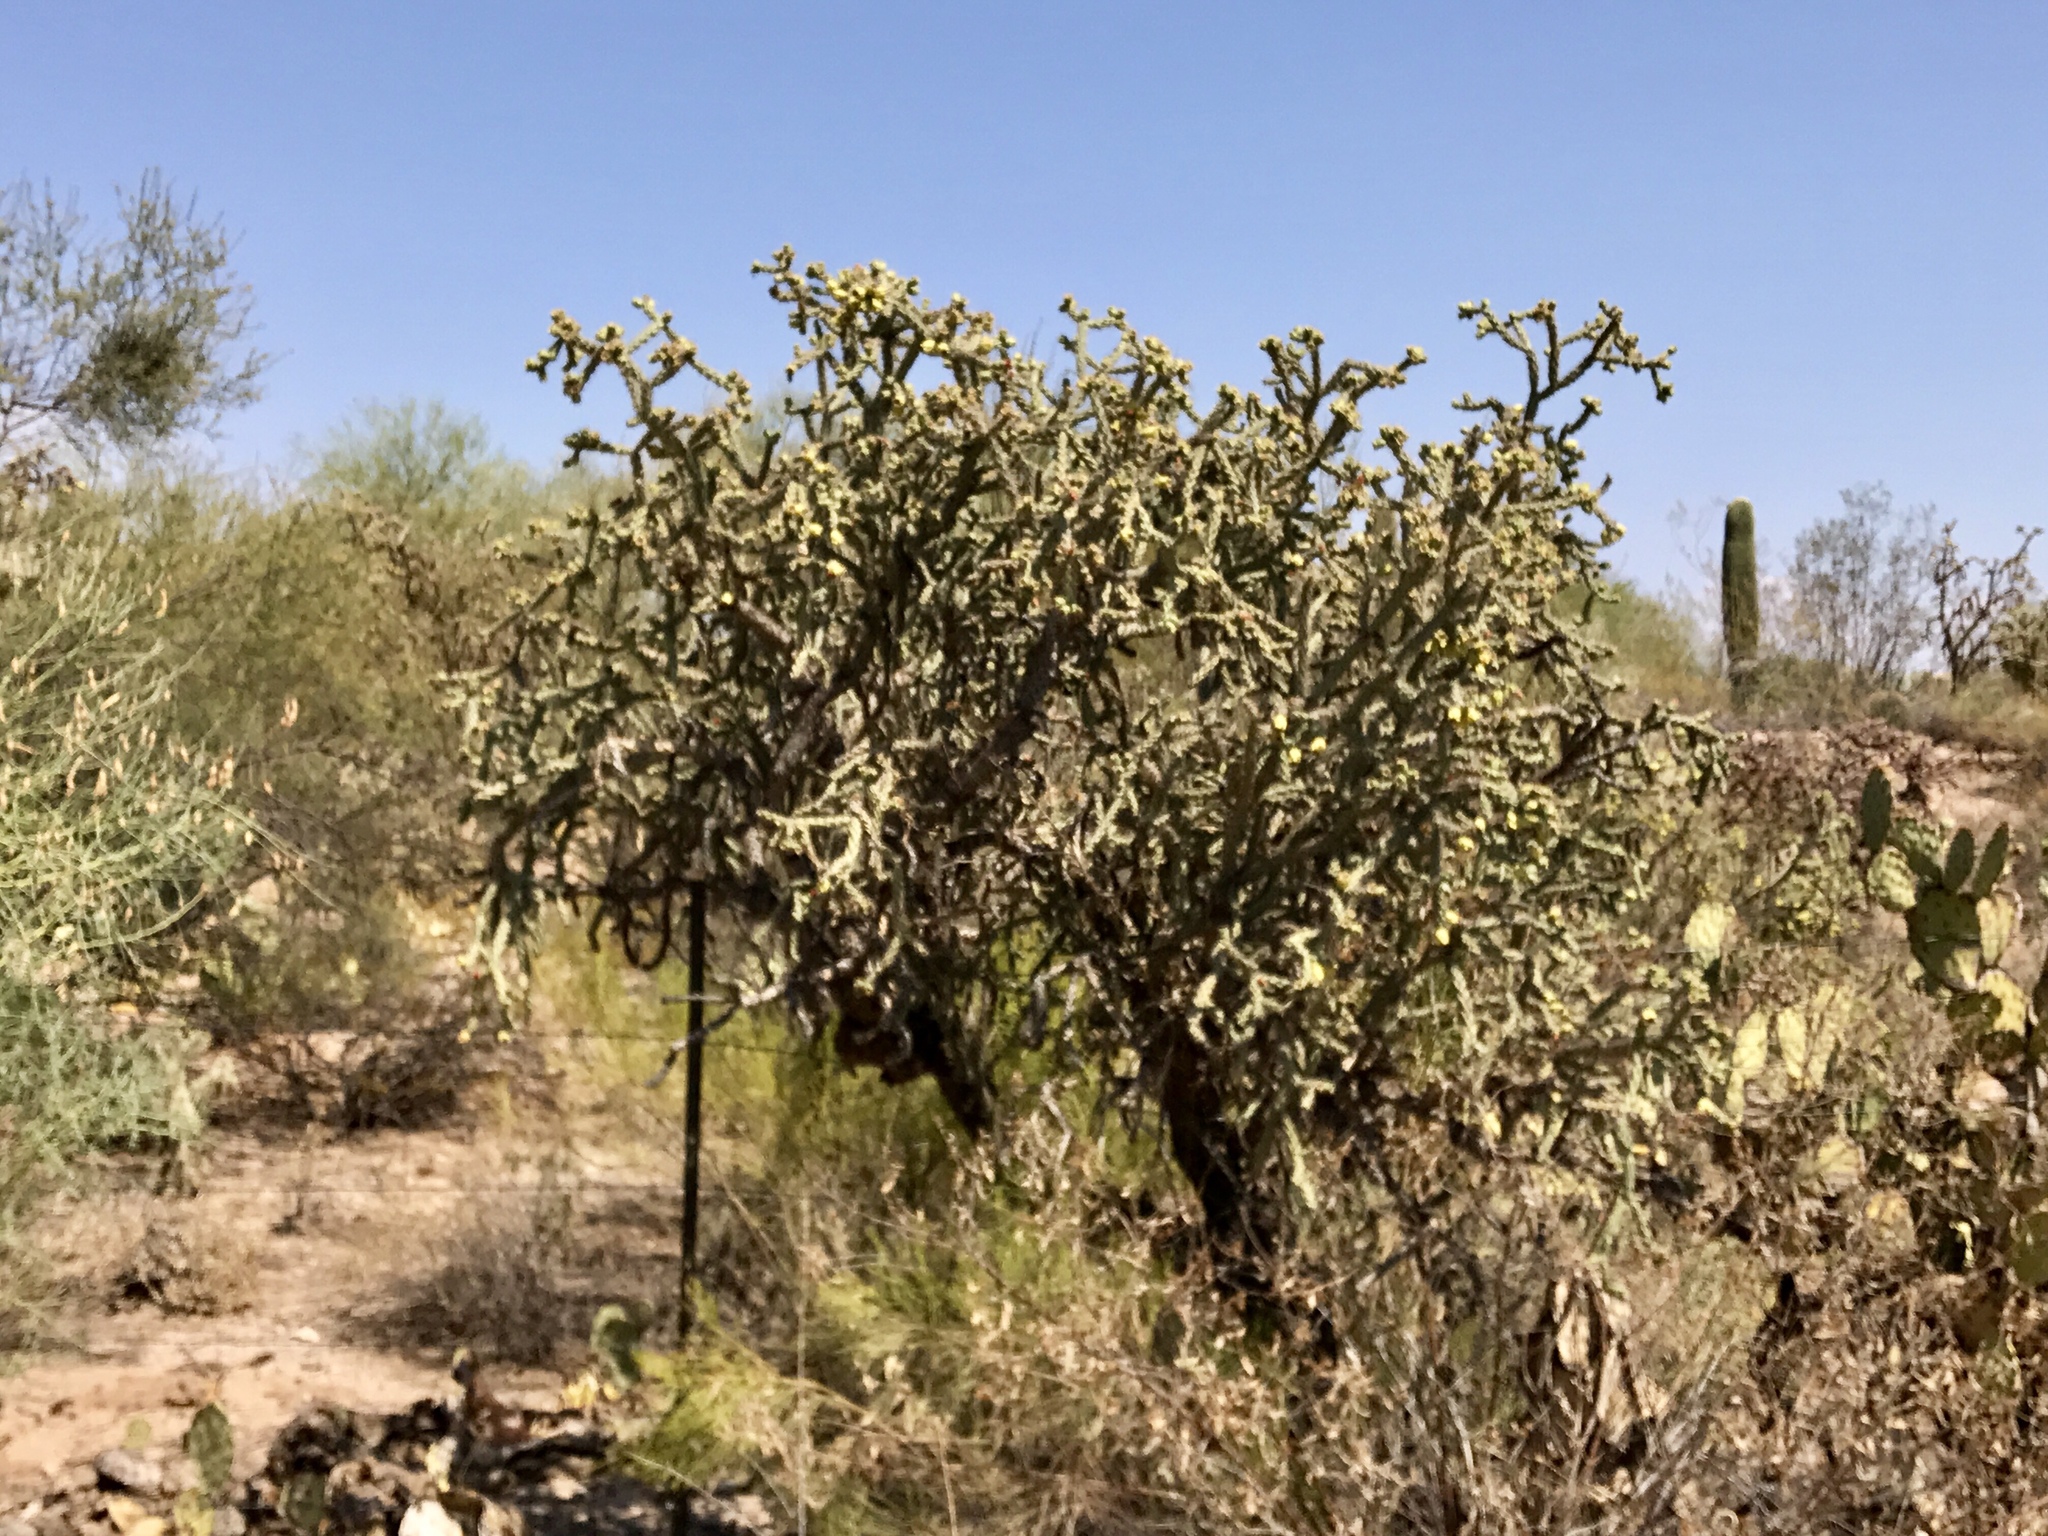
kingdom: Plantae
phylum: Tracheophyta
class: Magnoliopsida
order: Caryophyllales
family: Cactaceae
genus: Cylindropuntia
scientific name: Cylindropuntia thurberi
